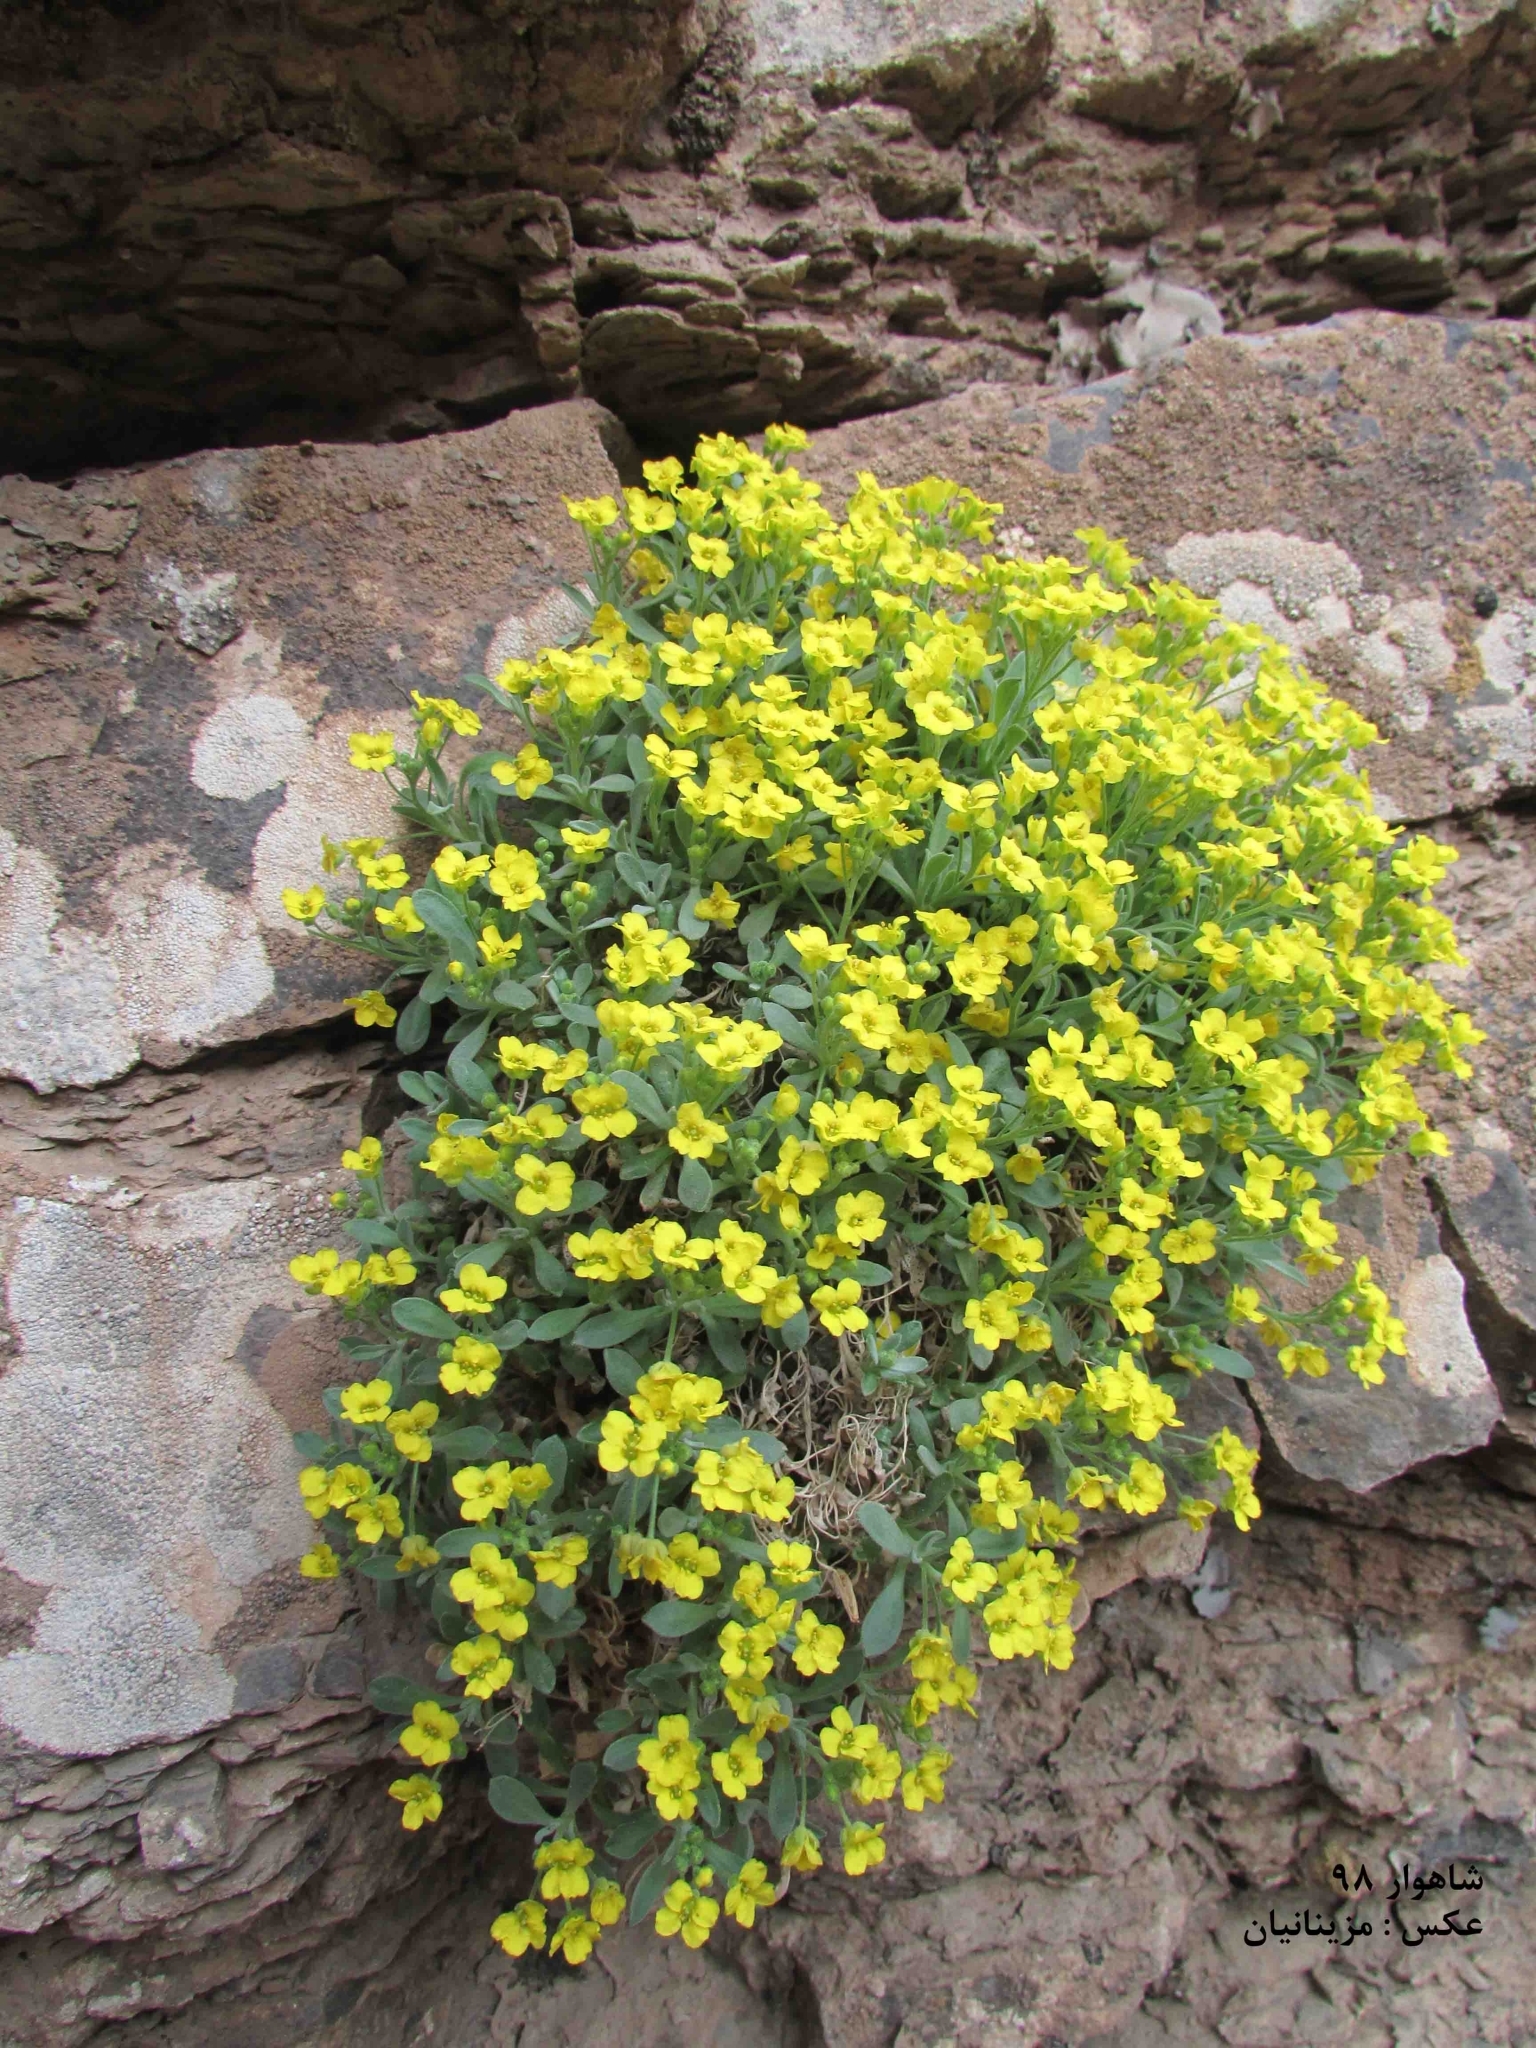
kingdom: Plantae
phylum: Tracheophyta
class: Magnoliopsida
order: Brassicales
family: Brassicaceae
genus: Dielsiocharis
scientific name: Dielsiocharis kotschyi
